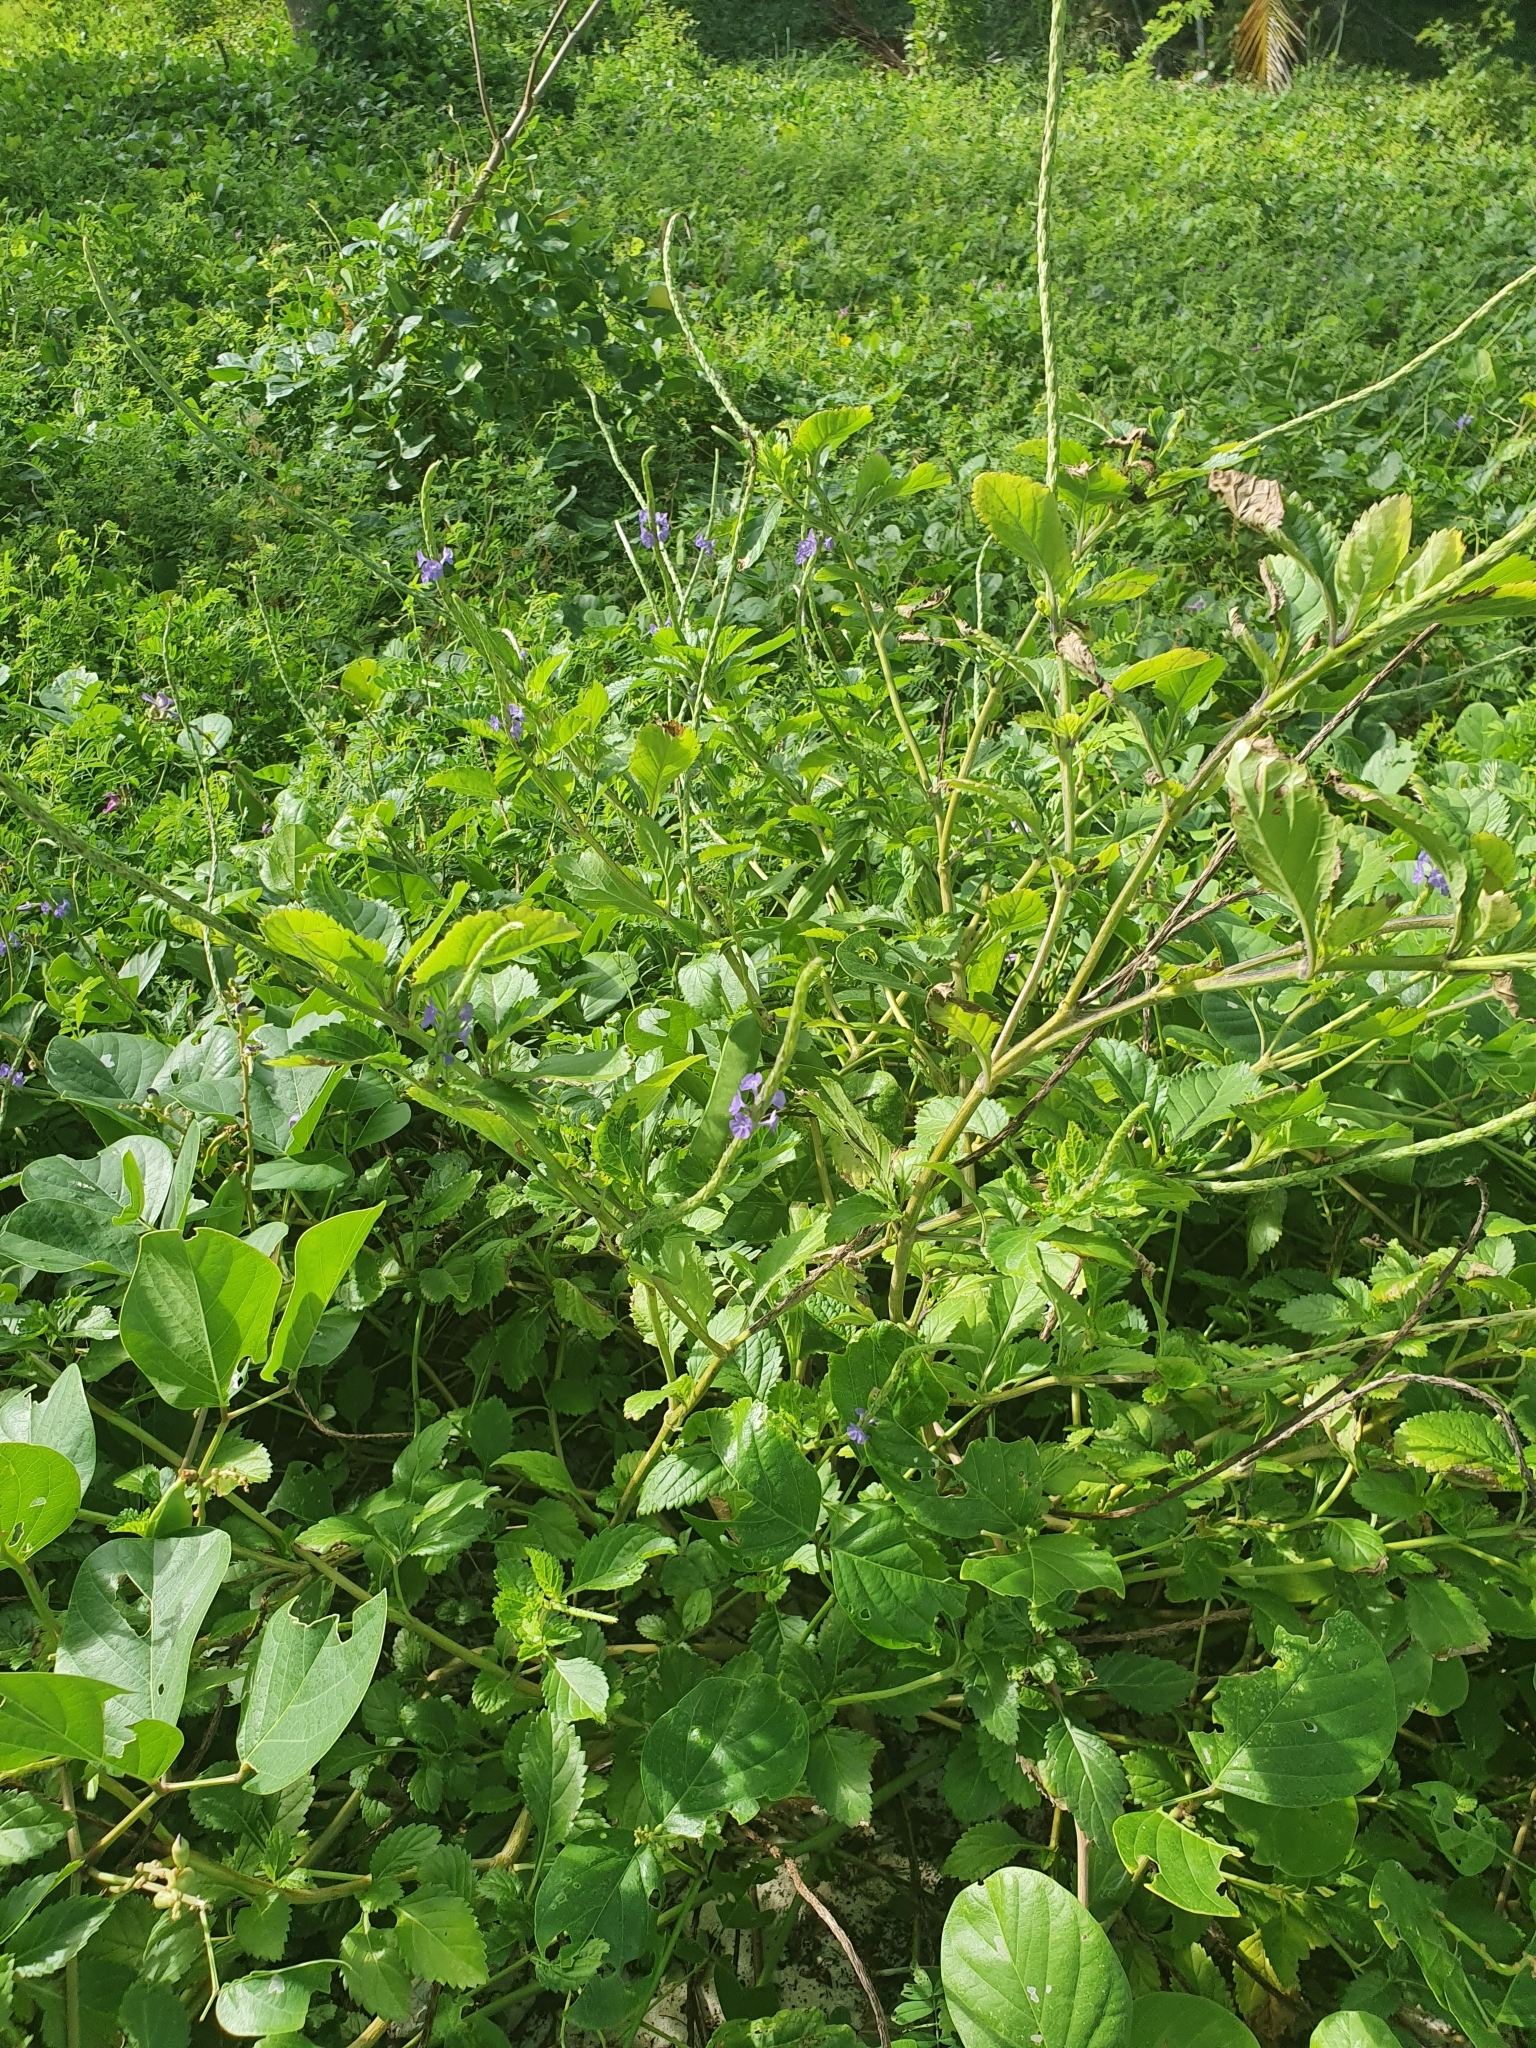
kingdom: Plantae
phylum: Tracheophyta
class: Magnoliopsida
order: Lamiales
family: Verbenaceae
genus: Stachytarpheta
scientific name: Stachytarpheta jamaicensis
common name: Light-blue snakeweed
